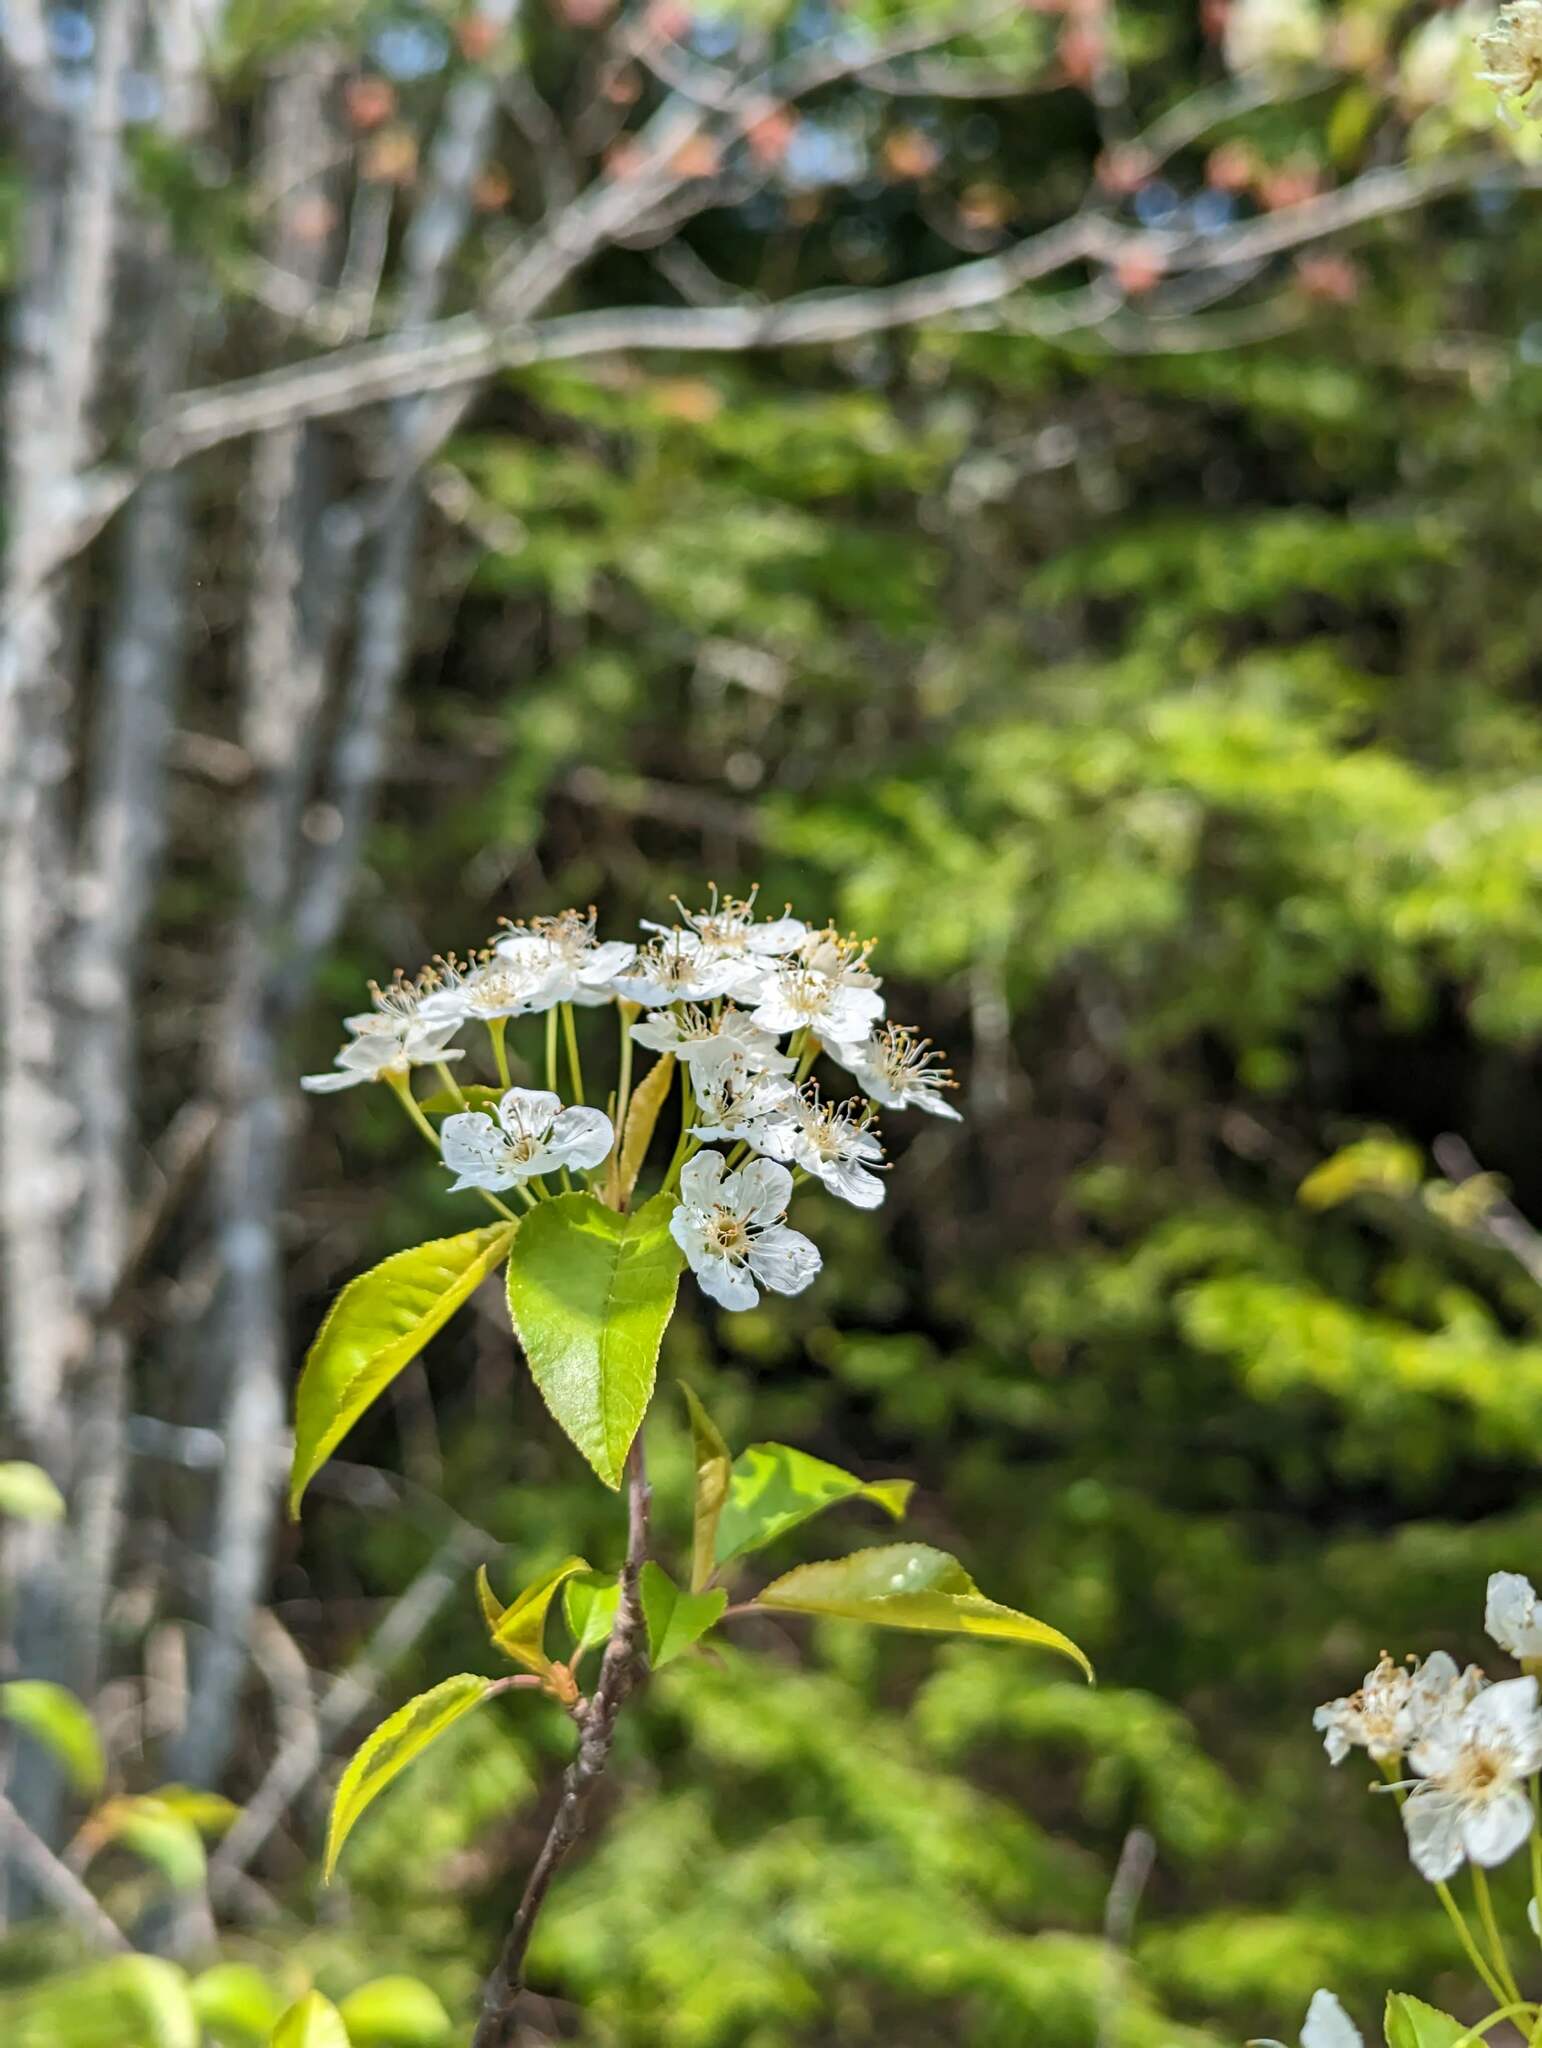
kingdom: Plantae
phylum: Tracheophyta
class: Magnoliopsida
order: Rosales
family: Rosaceae
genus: Prunus
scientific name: Prunus pensylvanica
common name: Pin cherry
